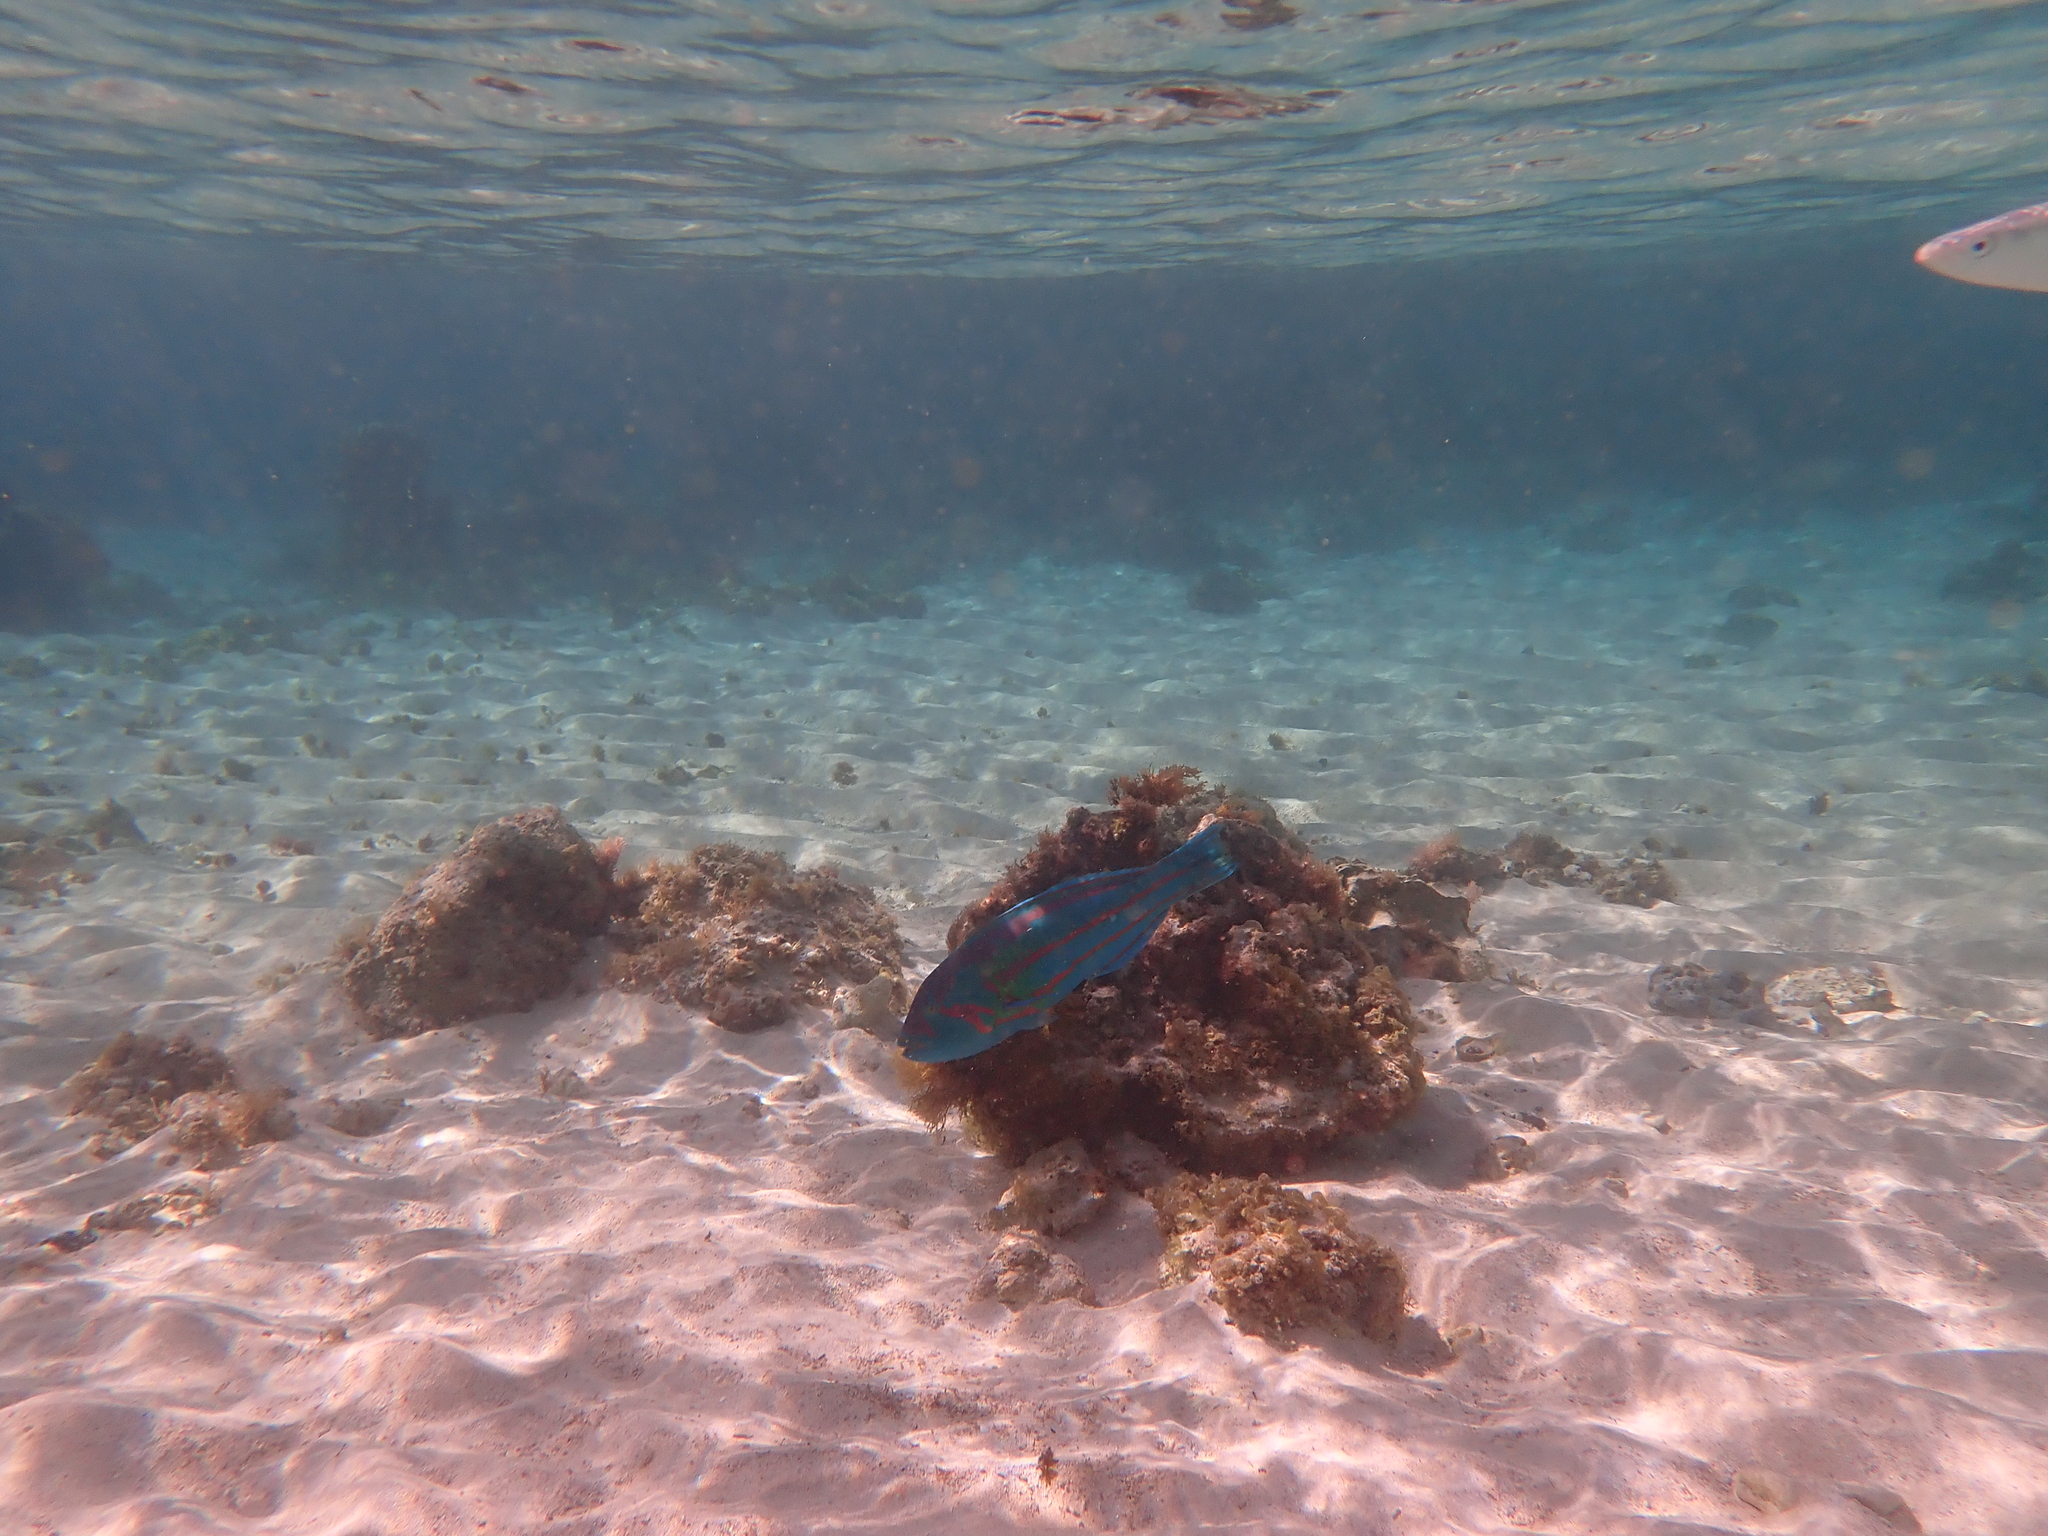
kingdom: Animalia
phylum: Chordata
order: Perciformes
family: Labridae
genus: Thalassoma
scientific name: Thalassoma purpureum
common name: Parrotfish
